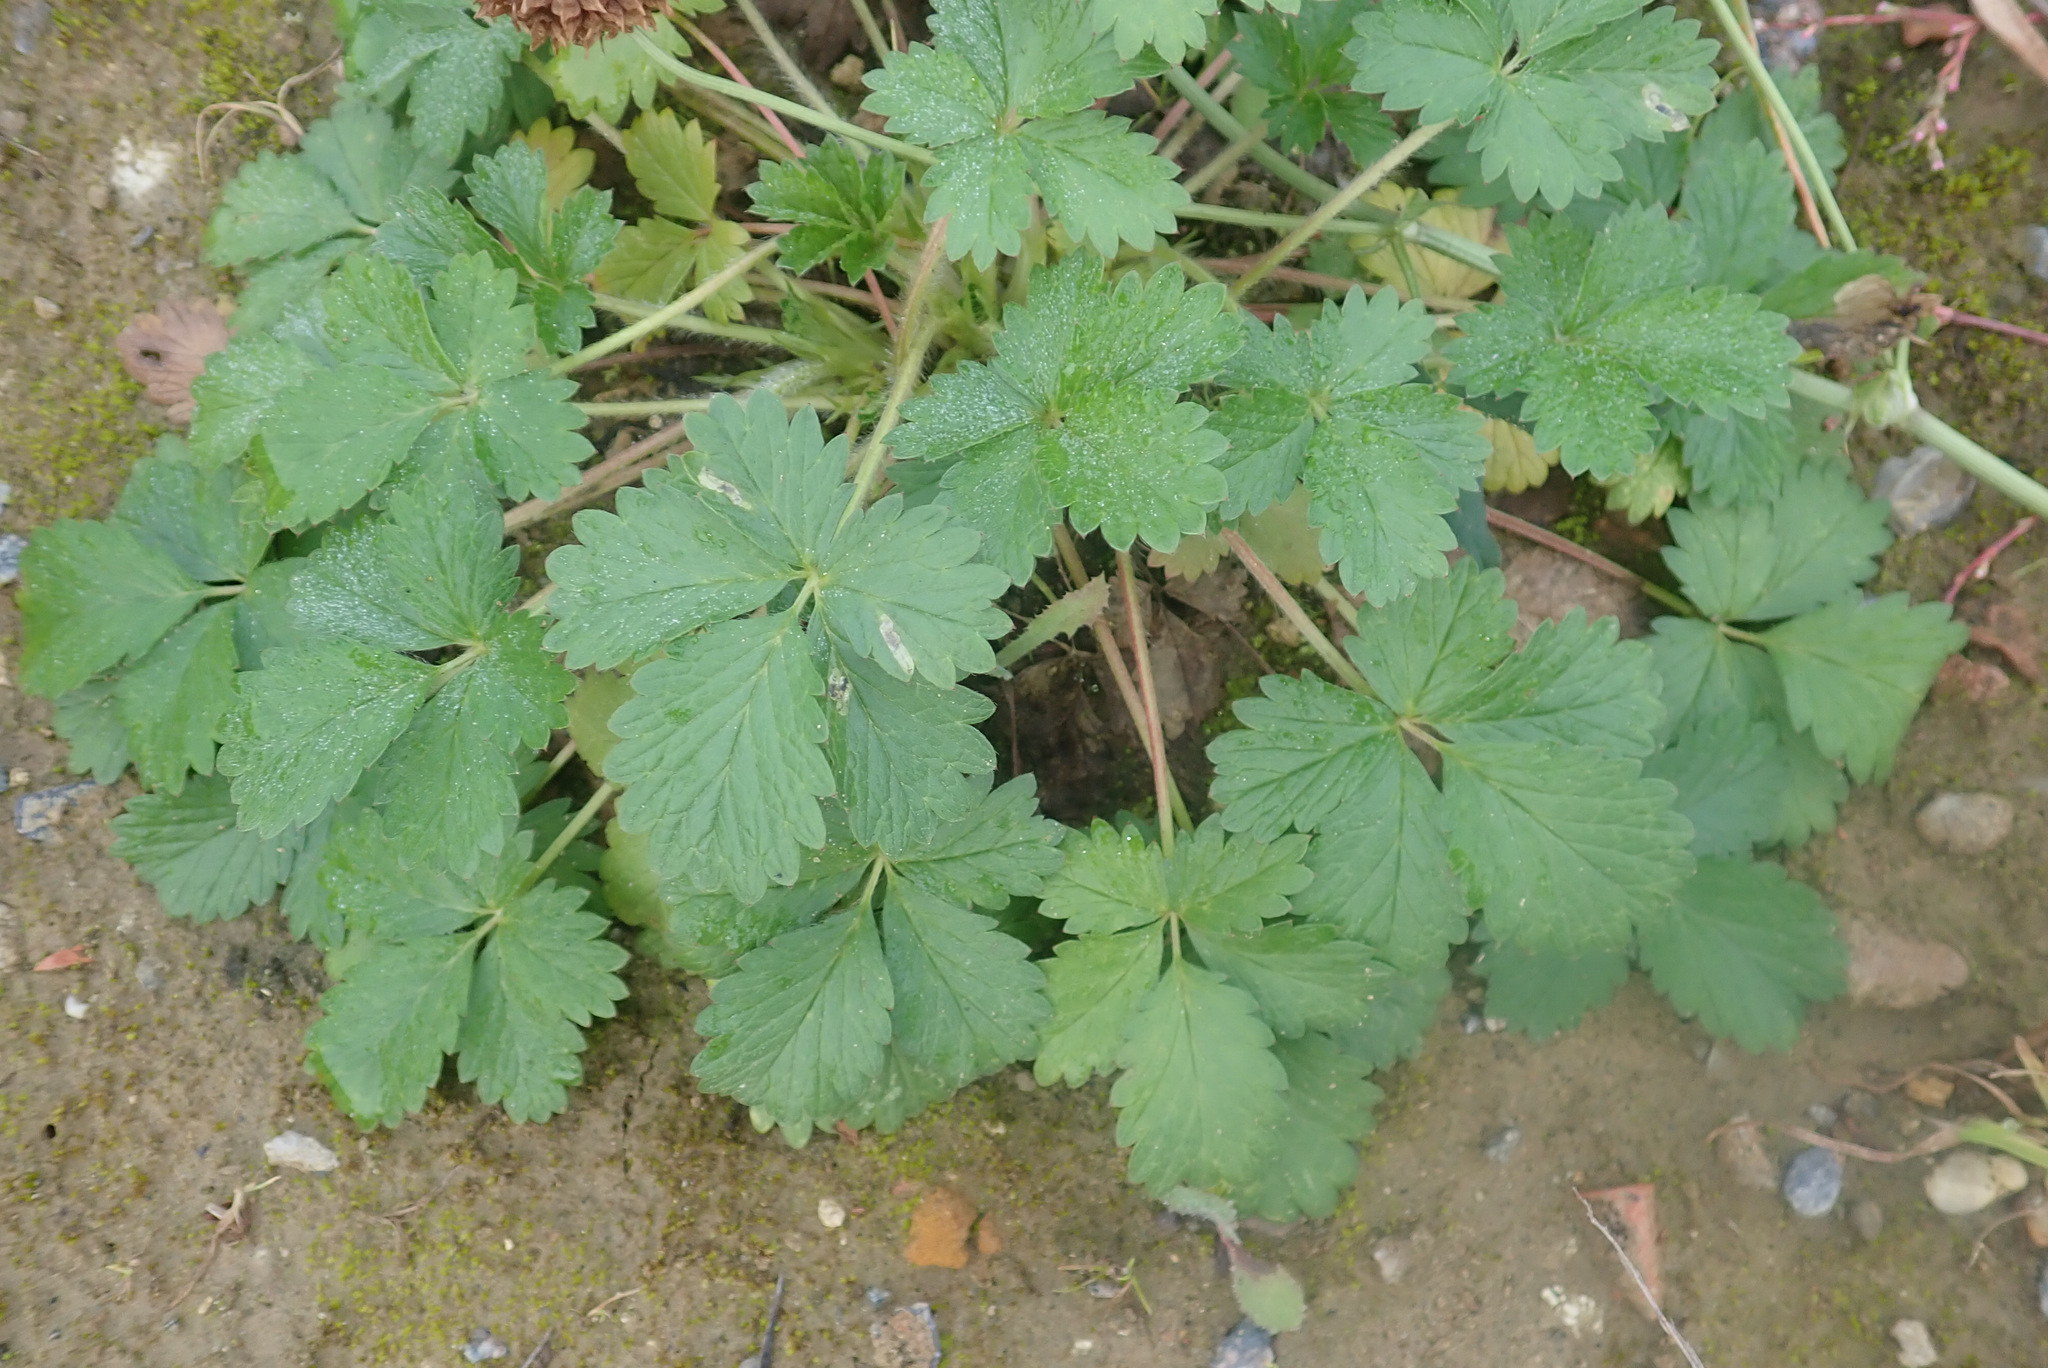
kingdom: Plantae
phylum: Tracheophyta
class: Magnoliopsida
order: Rosales
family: Rosaceae
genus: Potentilla
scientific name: Potentilla intermedia
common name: Downy cinquefoil
